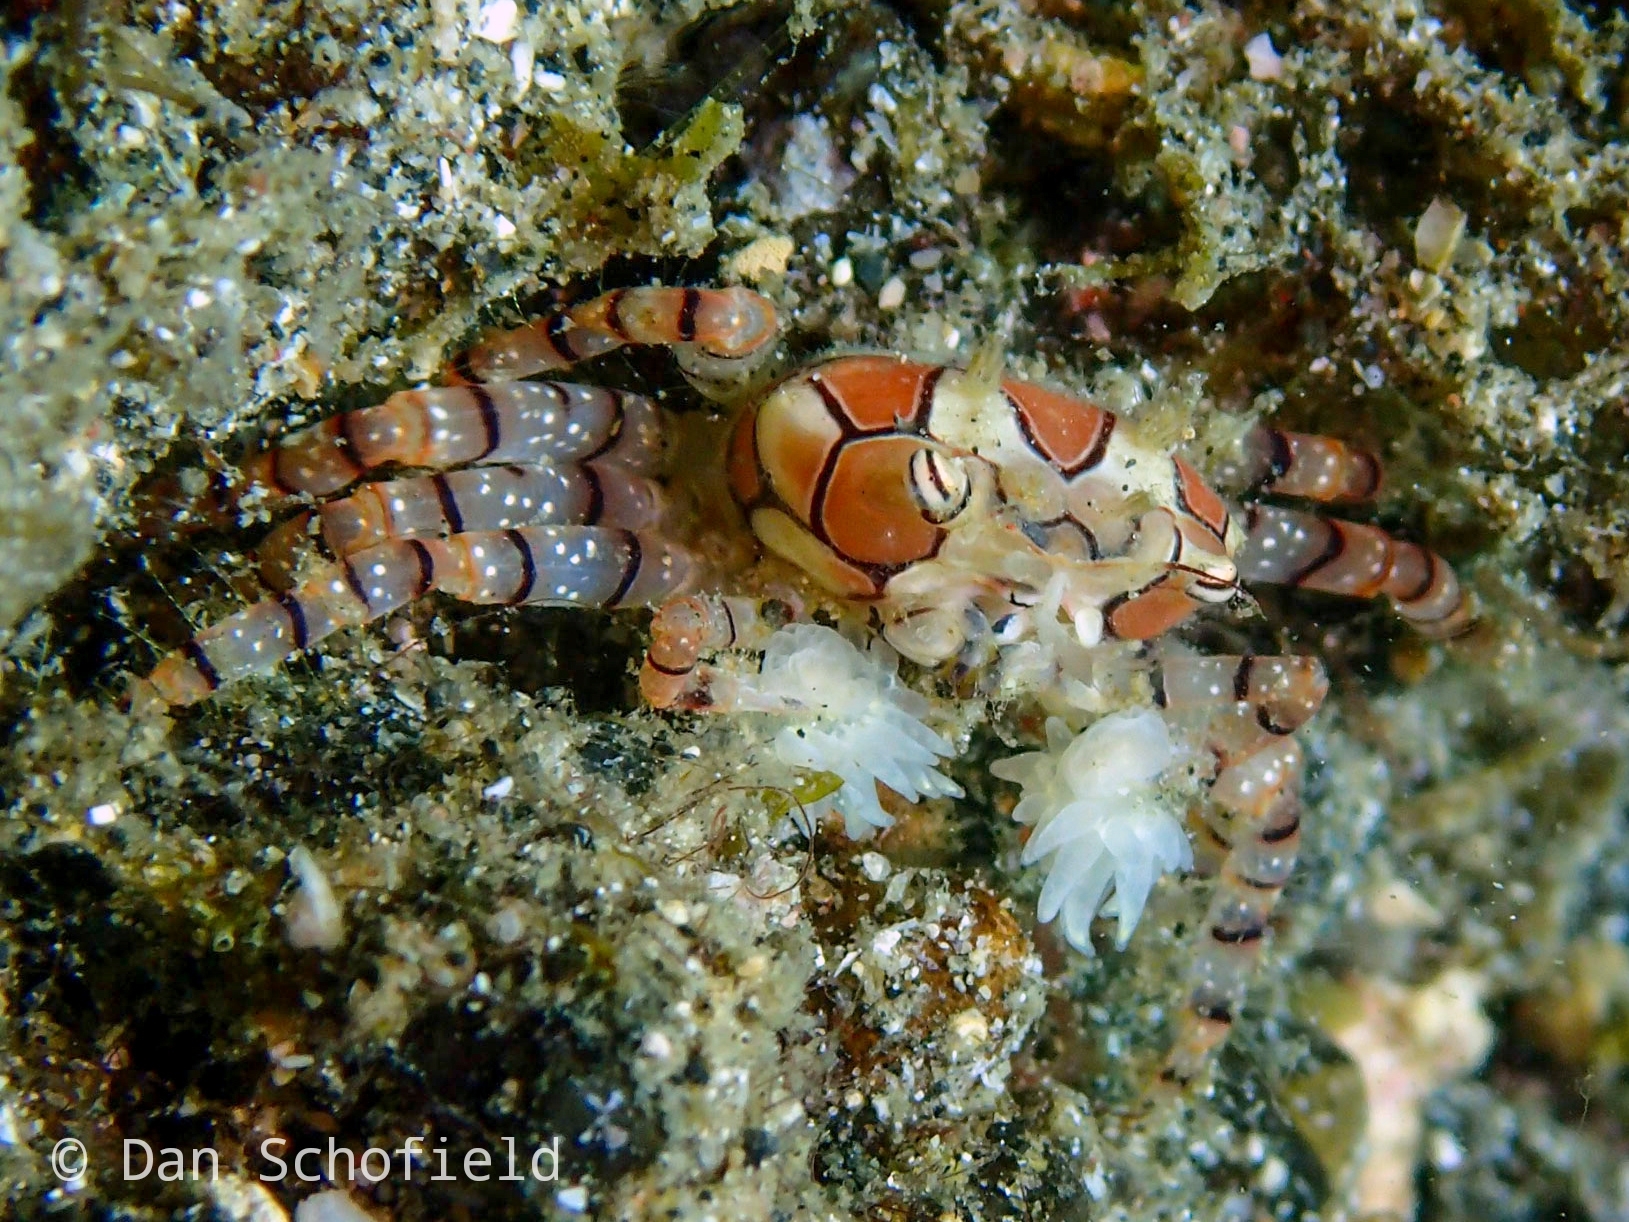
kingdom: Animalia
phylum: Arthropoda
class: Malacostraca
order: Decapoda
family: Xanthidae
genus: Lybia
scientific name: Lybia tessellata
